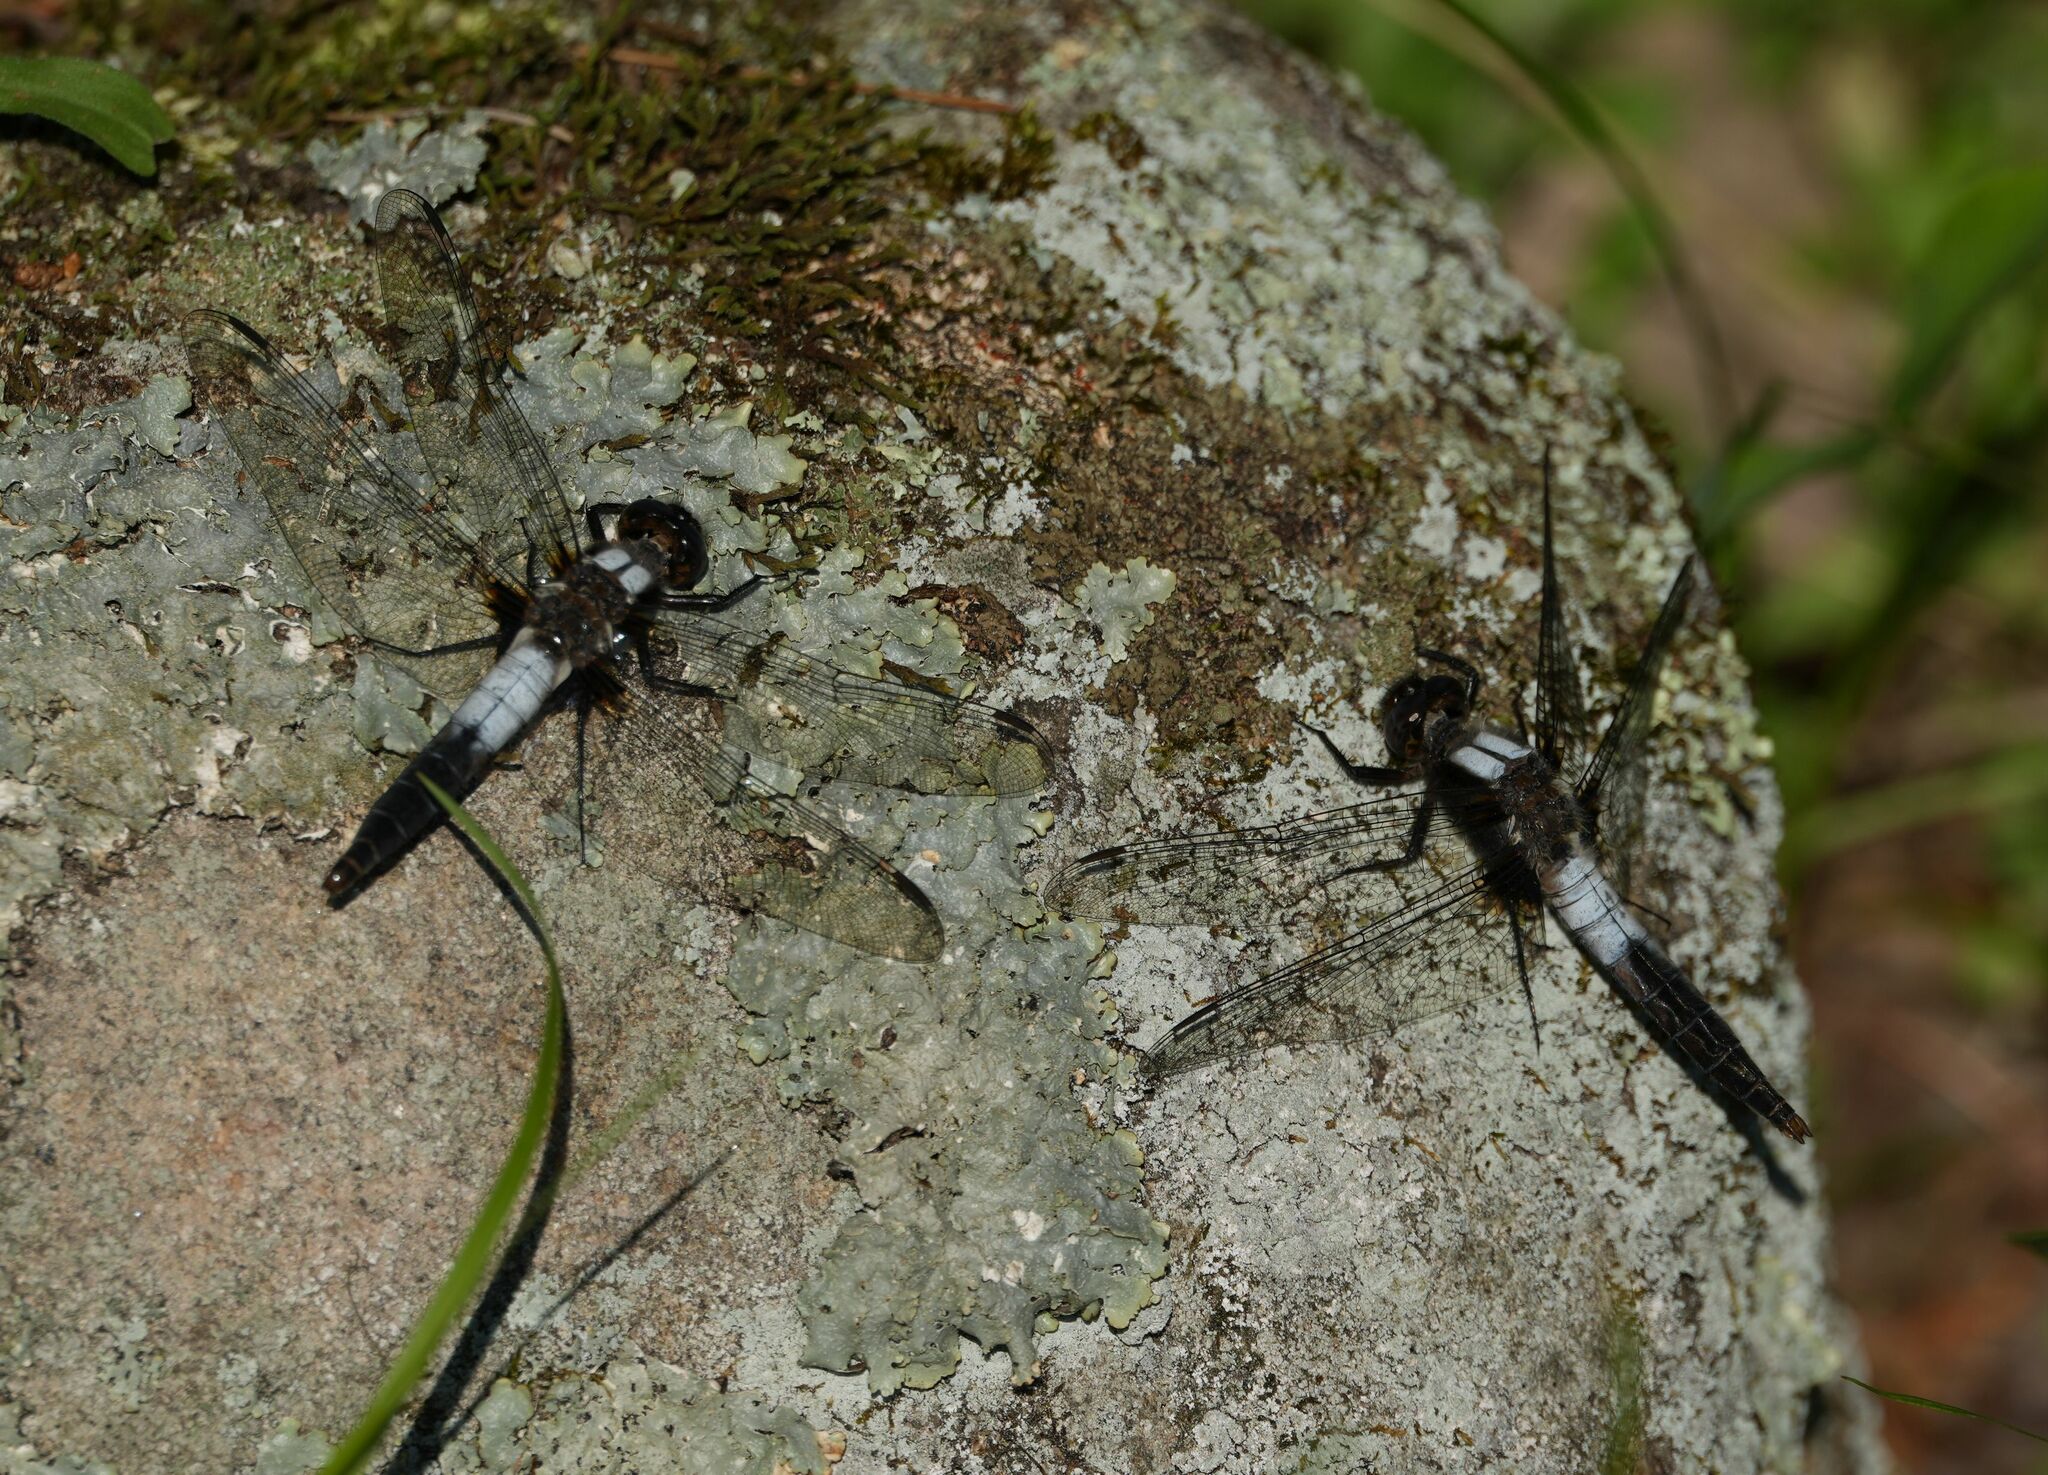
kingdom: Animalia
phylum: Arthropoda
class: Insecta
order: Odonata
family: Libellulidae
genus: Ladona
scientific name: Ladona julia
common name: Chalk-fronted corporal
